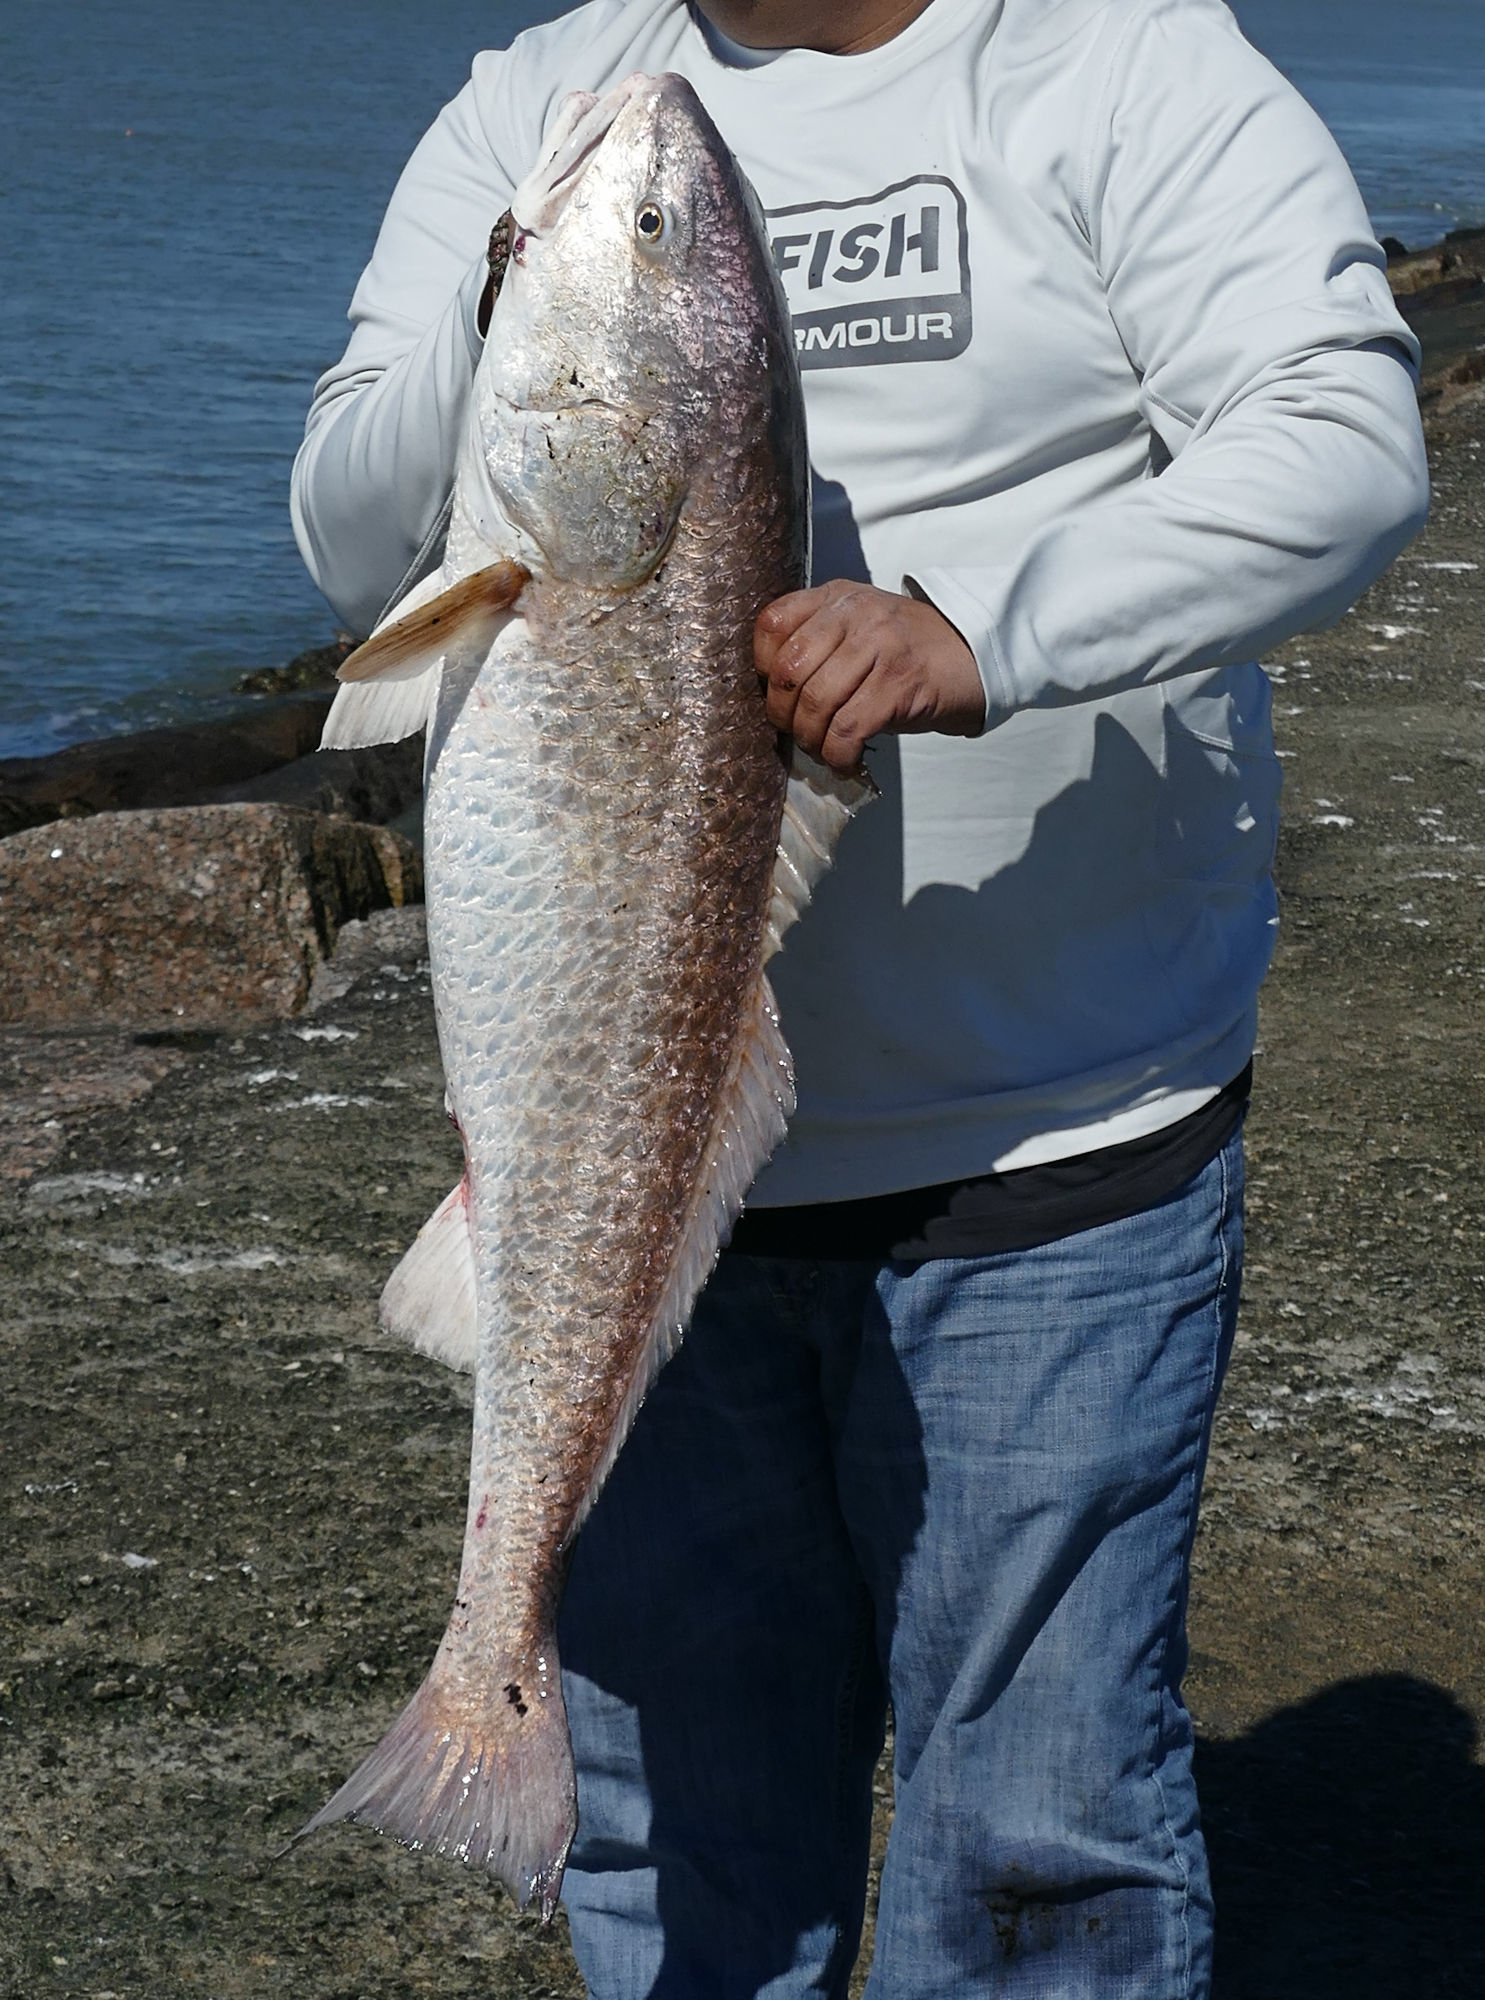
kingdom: Animalia
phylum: Chordata
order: Perciformes
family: Sciaenidae
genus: Sciaenops
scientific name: Sciaenops ocellatus
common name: Red drum
